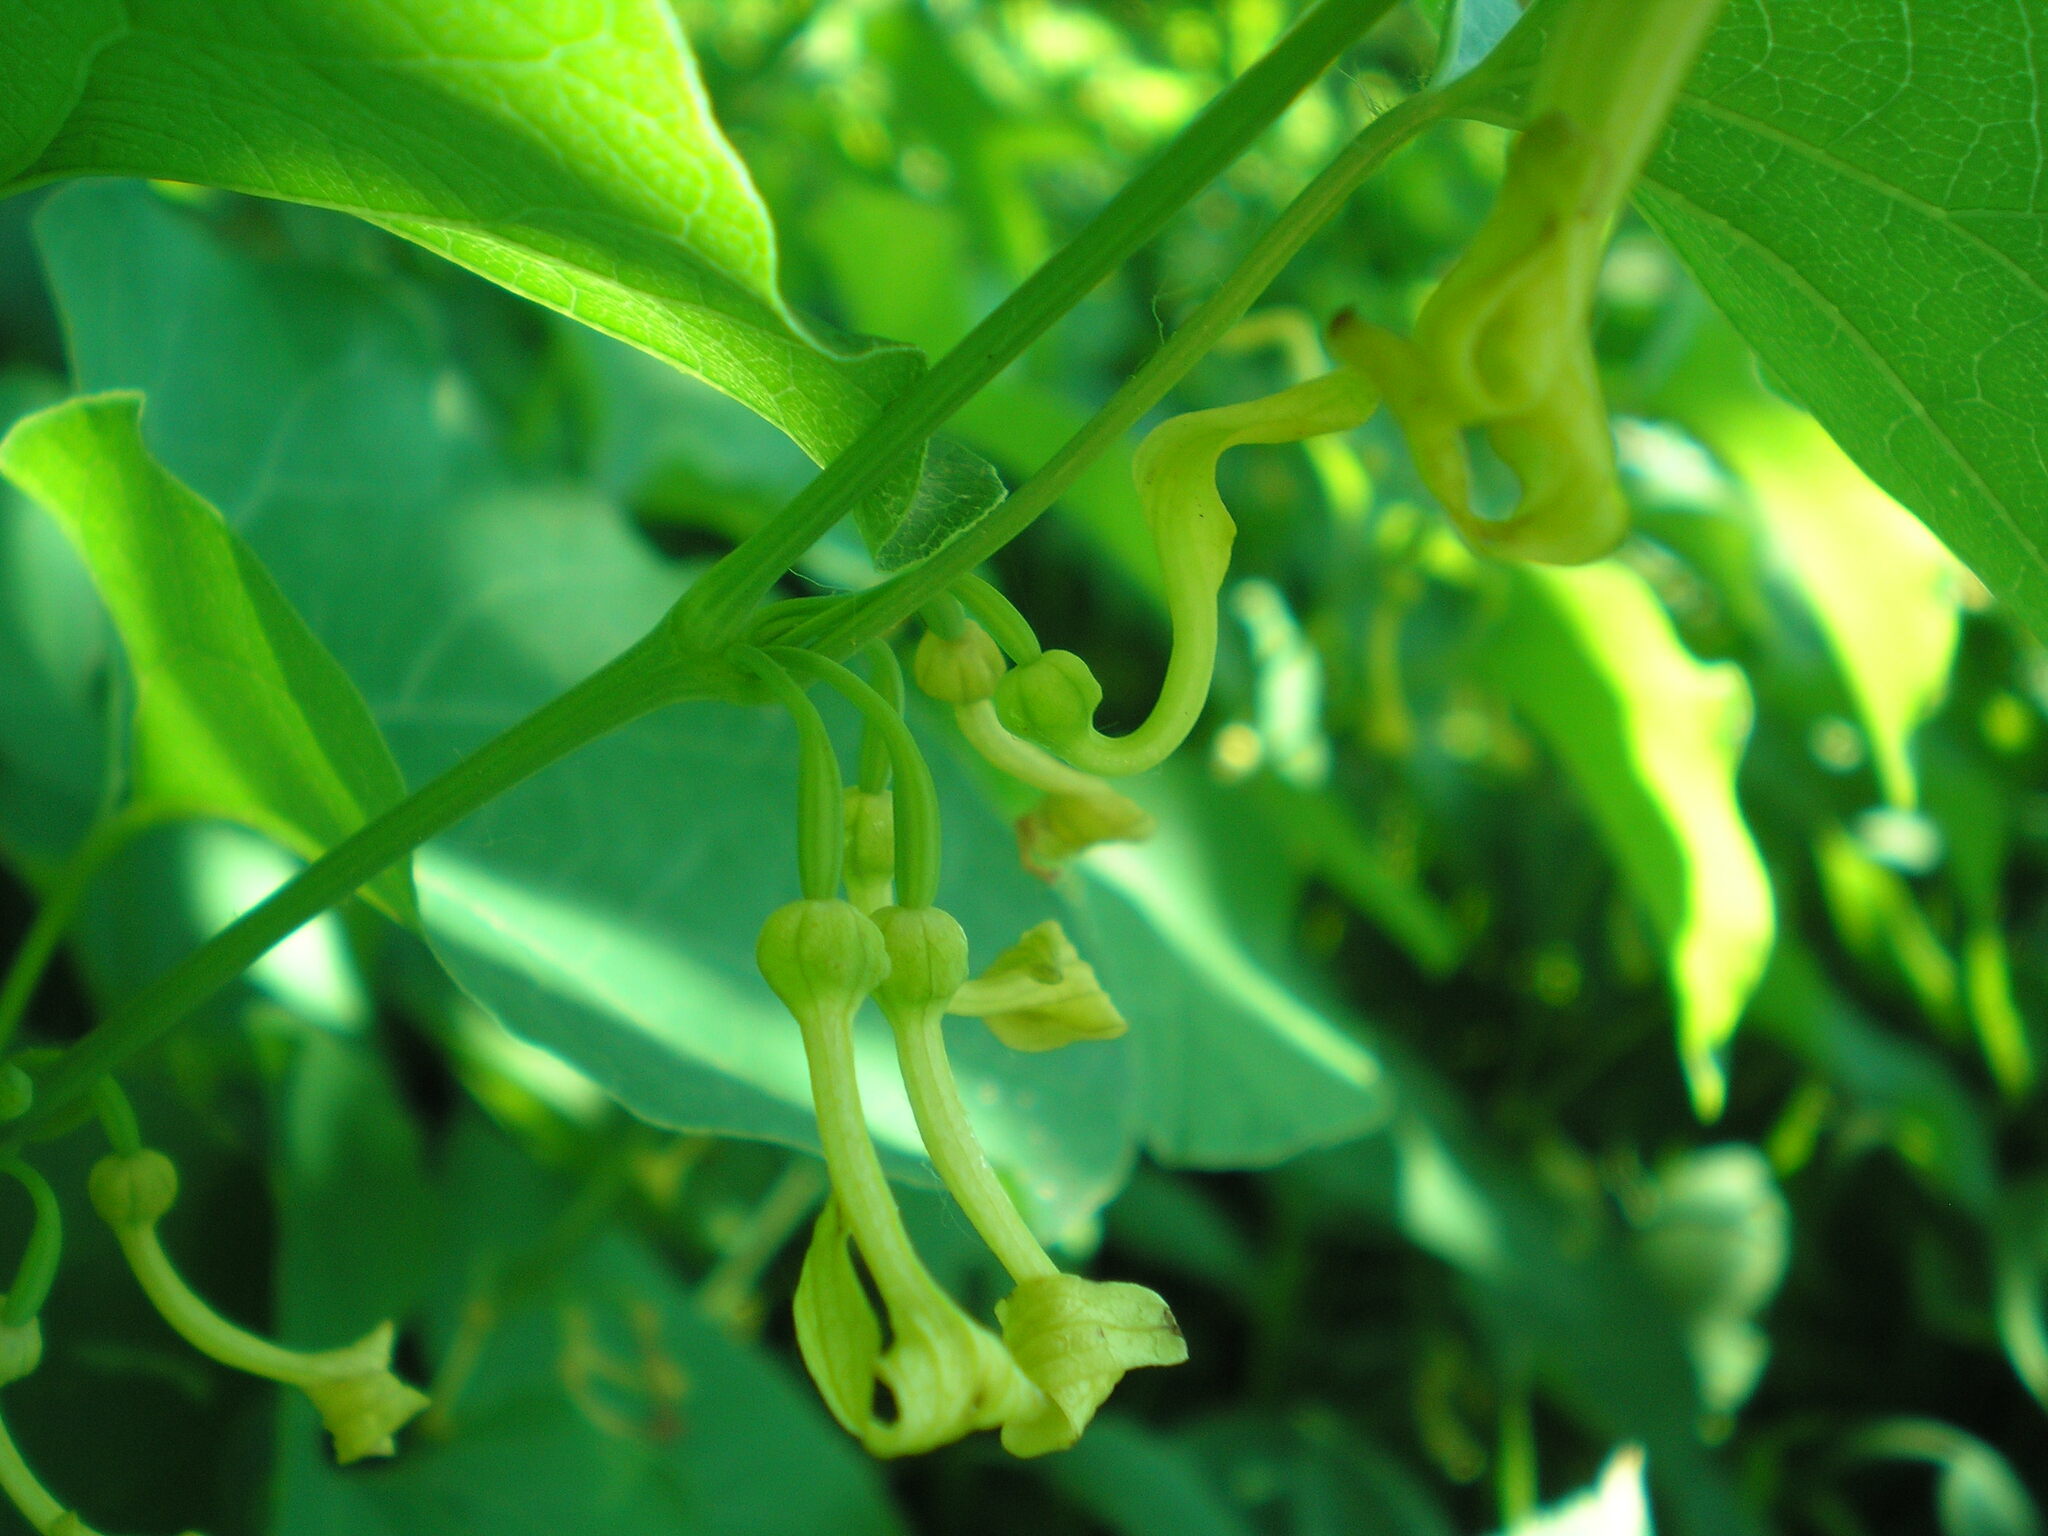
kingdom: Plantae
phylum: Tracheophyta
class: Magnoliopsida
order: Piperales
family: Aristolochiaceae
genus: Aristolochia
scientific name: Aristolochia clematitis
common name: Birthwort
